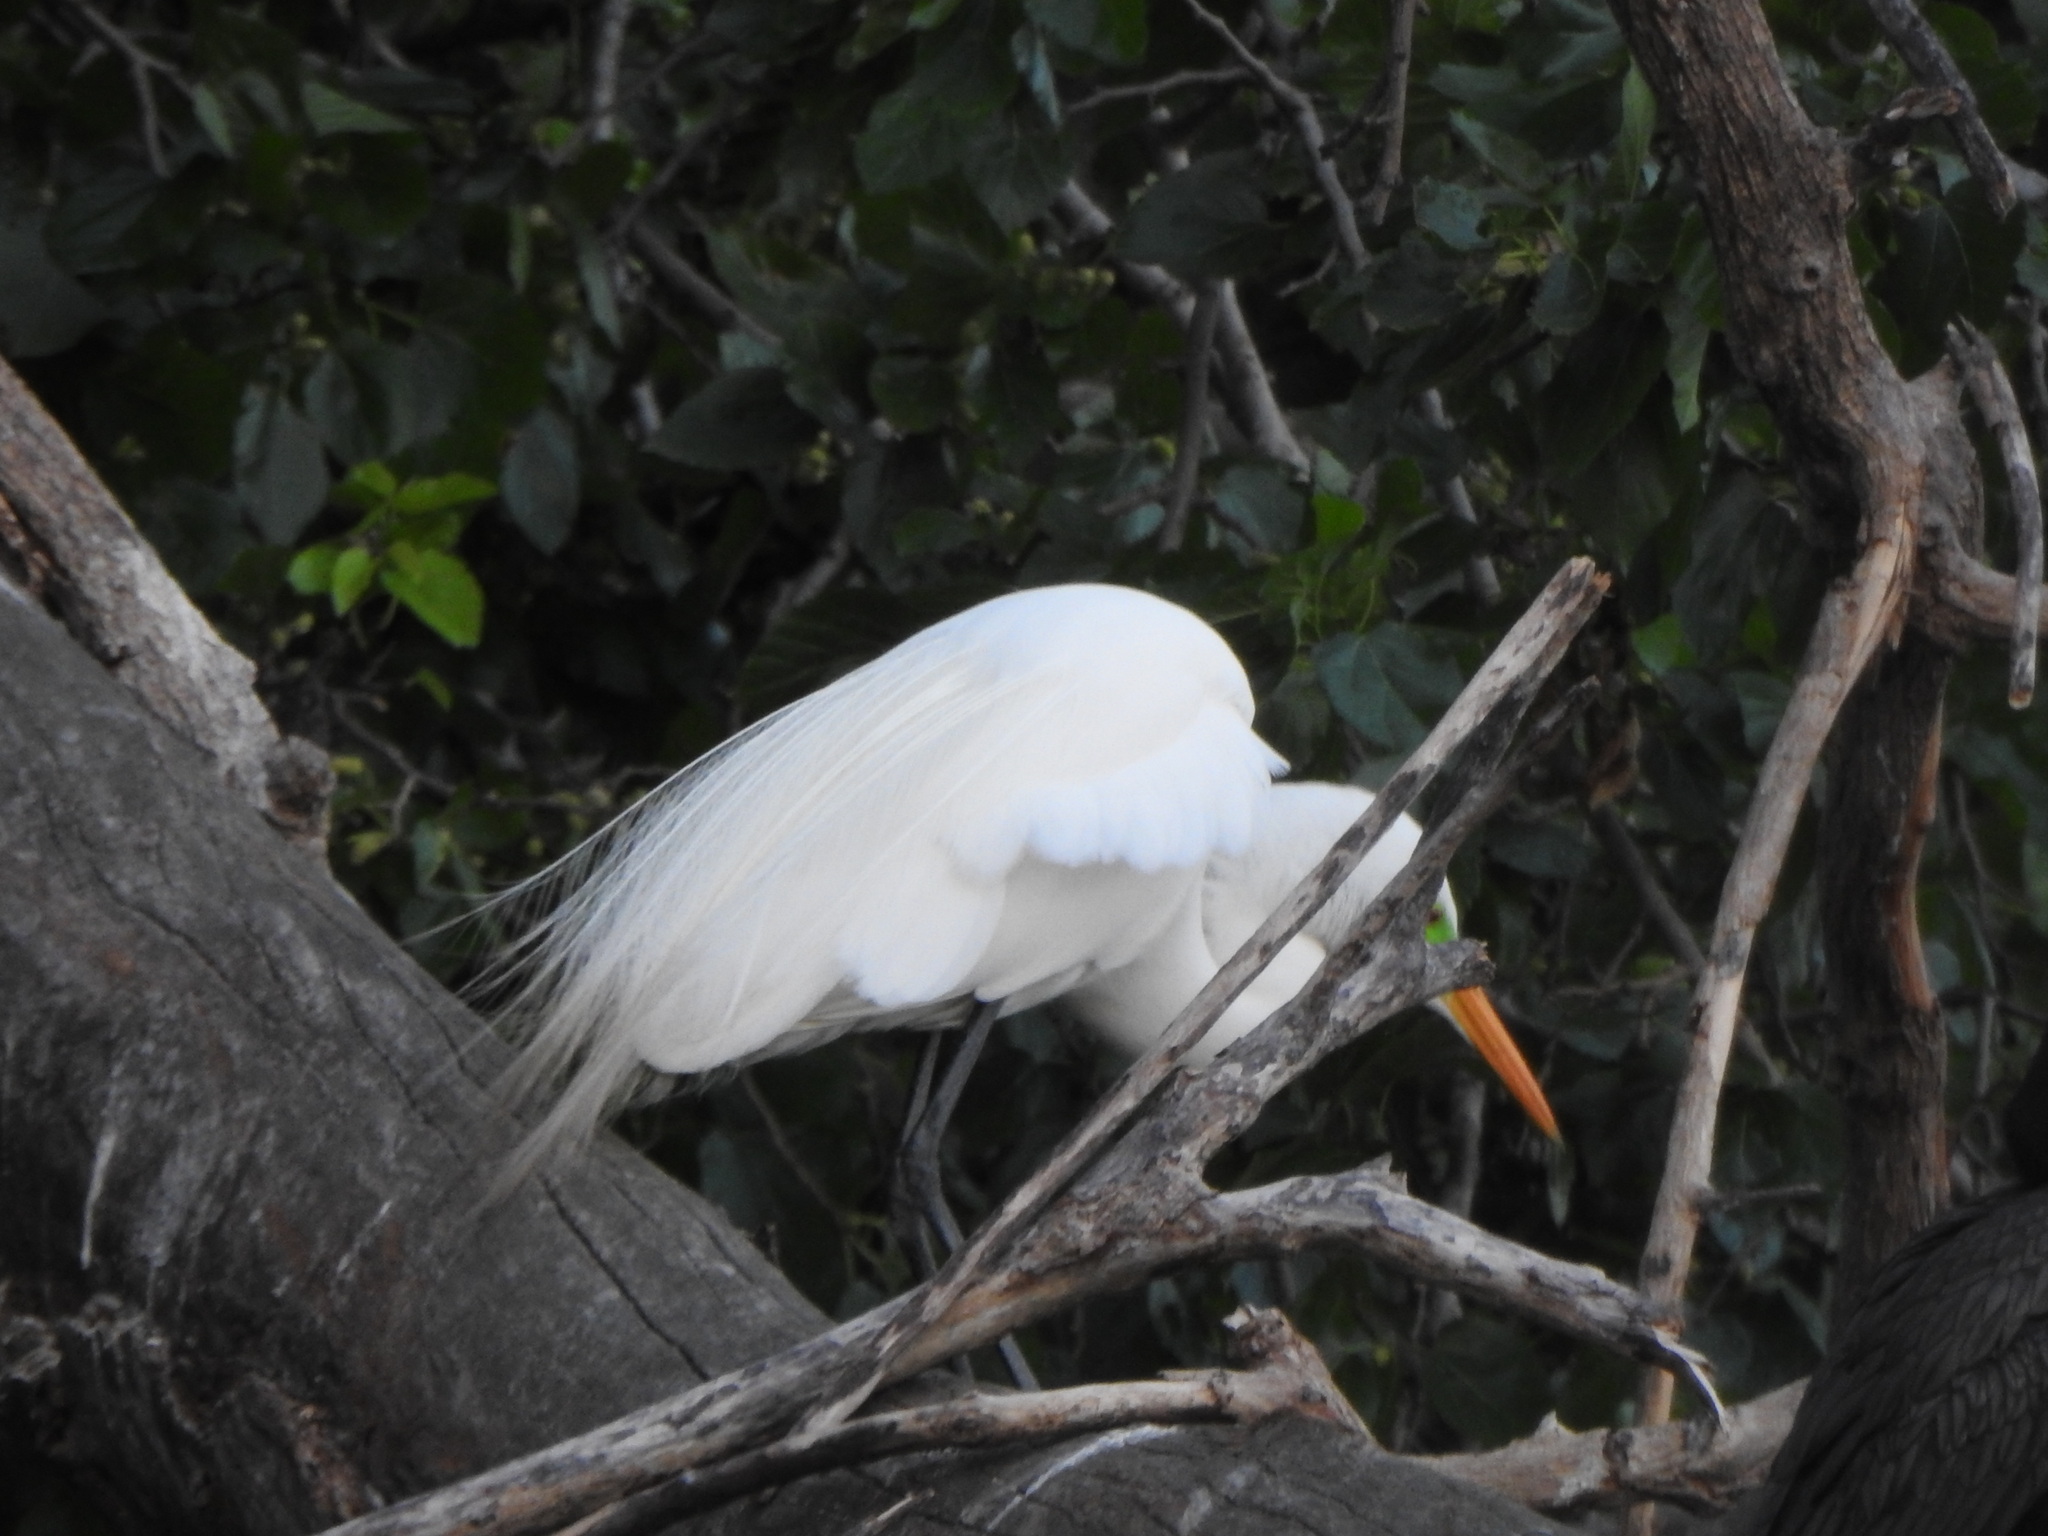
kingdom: Animalia
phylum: Chordata
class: Aves
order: Pelecaniformes
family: Ardeidae
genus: Ardea
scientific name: Ardea alba
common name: Great egret
